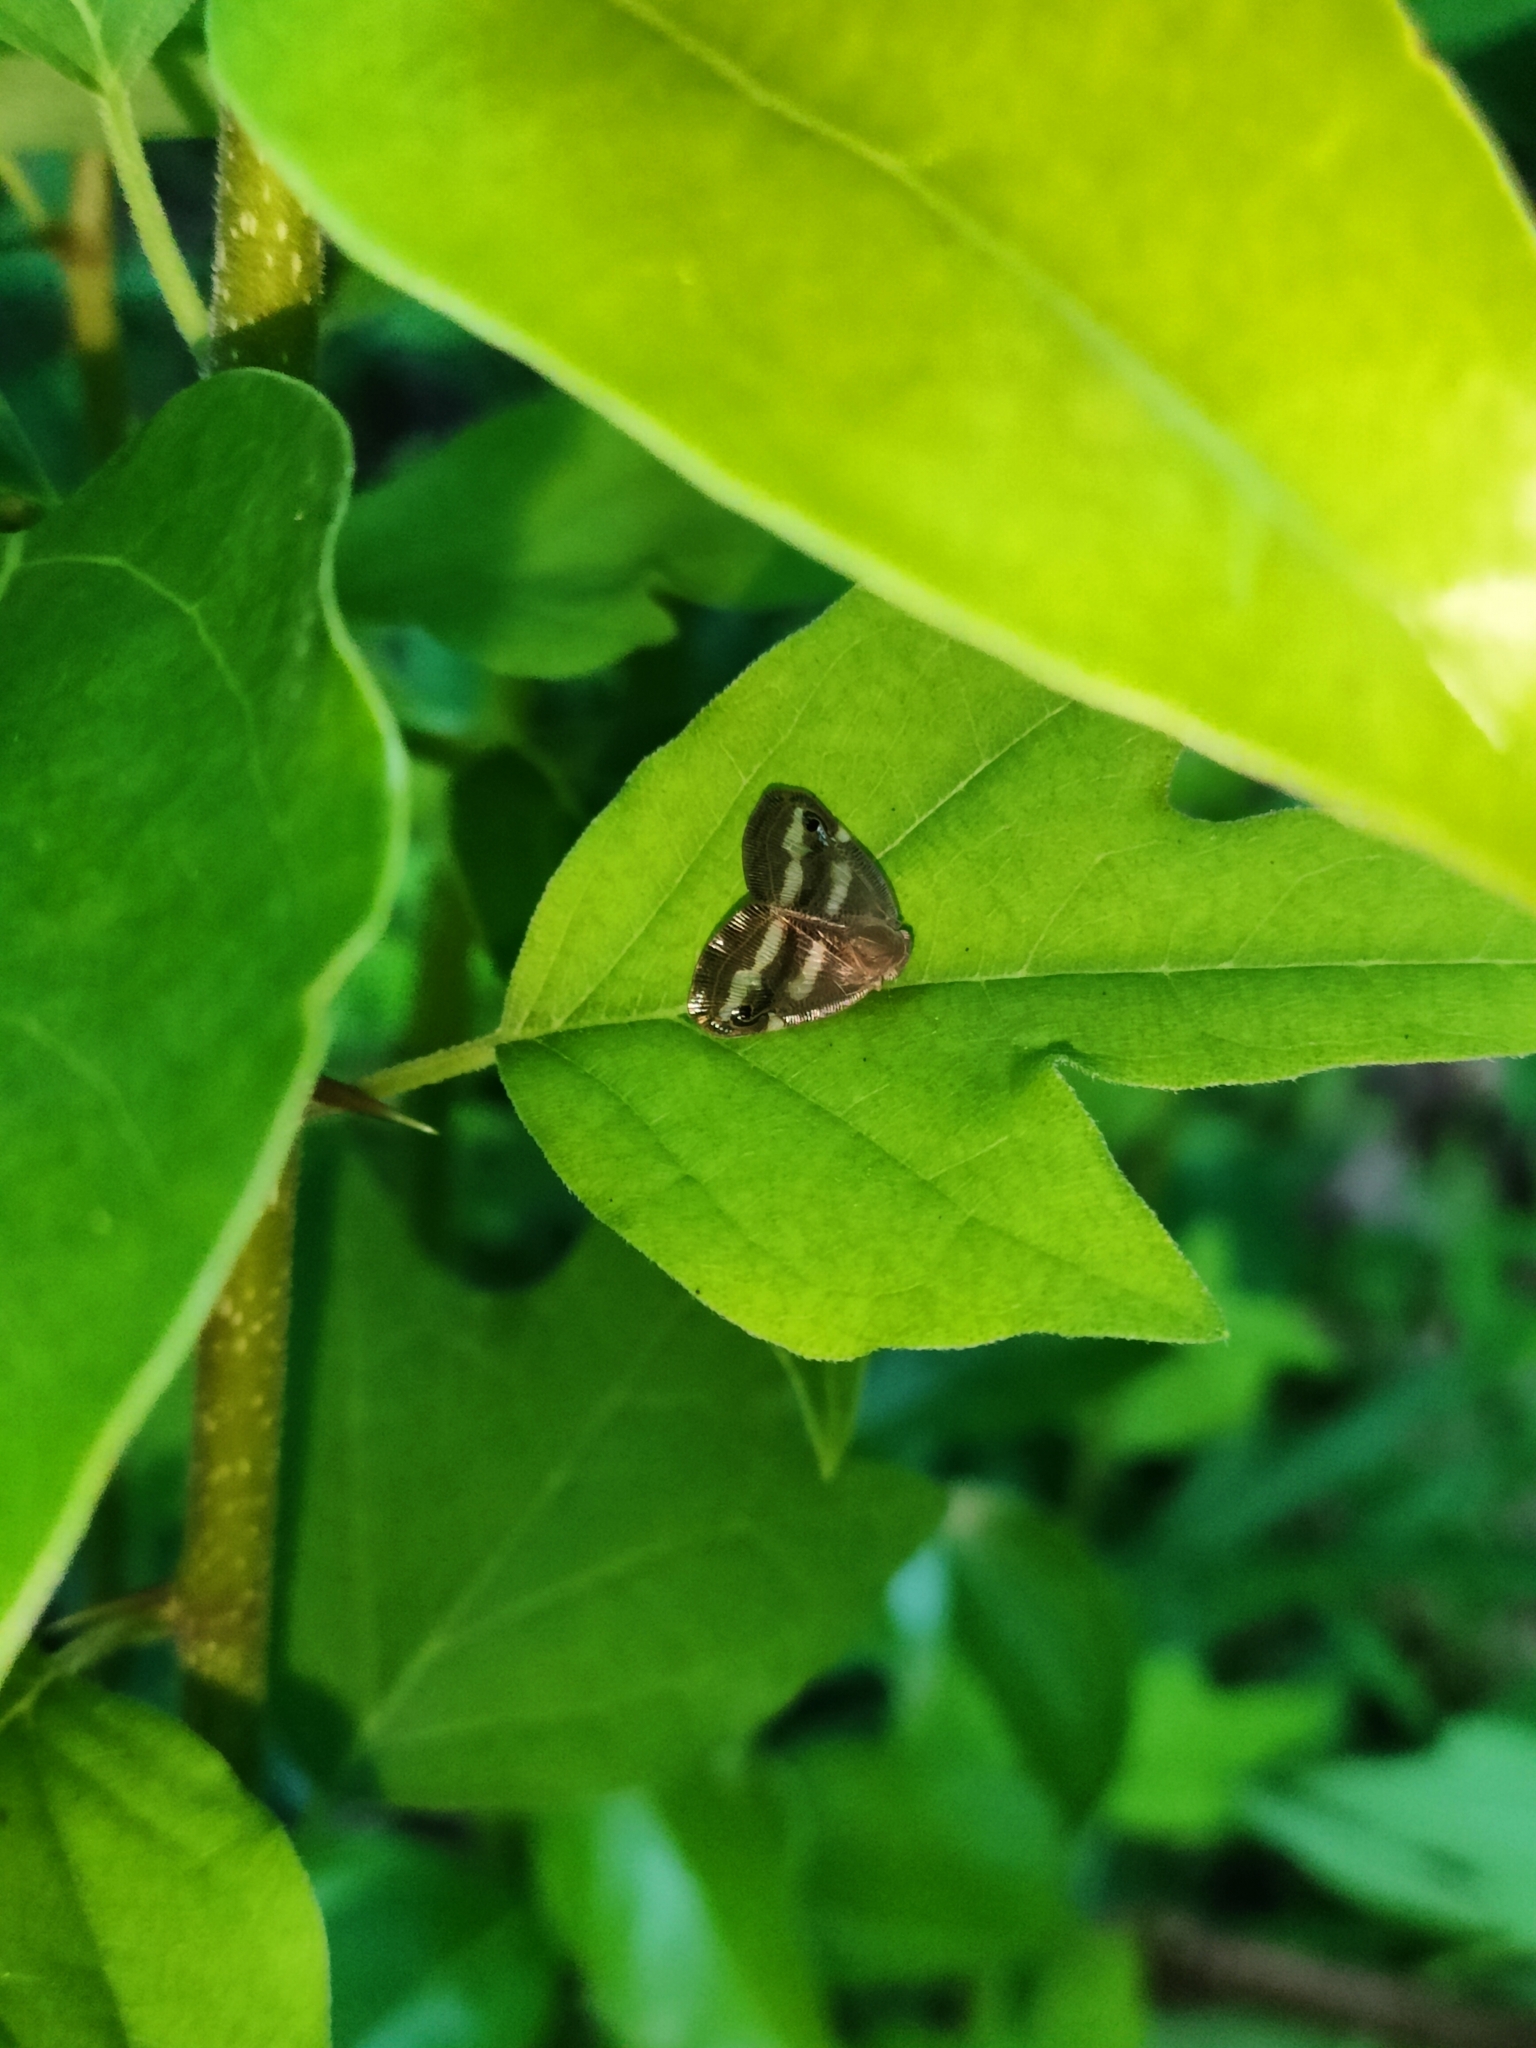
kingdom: Animalia
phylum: Arthropoda
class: Insecta
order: Hemiptera
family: Ricaniidae
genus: Orosanga
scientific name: Orosanga japonica
